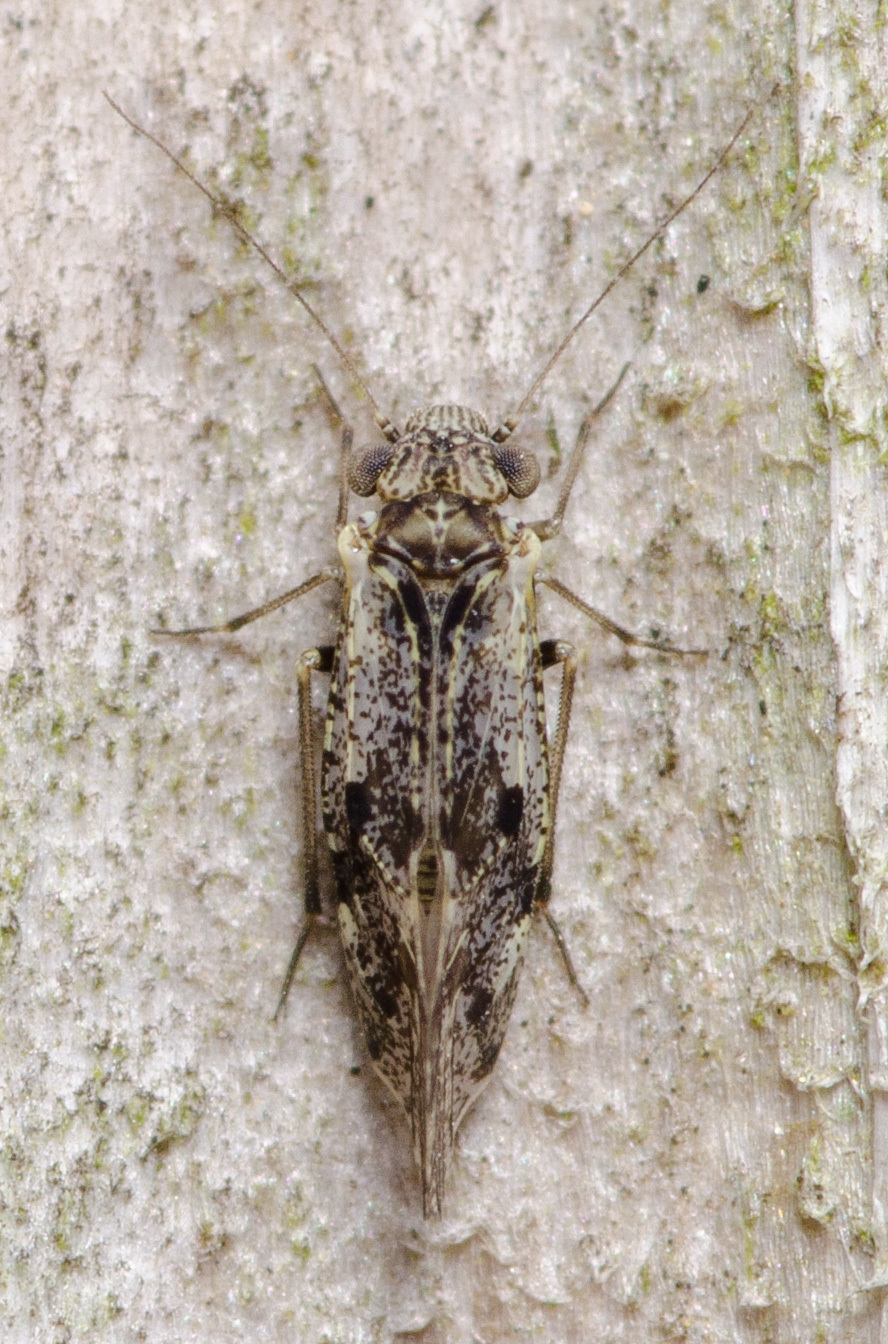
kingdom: Animalia
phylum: Arthropoda
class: Insecta
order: Psocodea
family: Psocidae
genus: Loensia
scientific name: Loensia moesta
